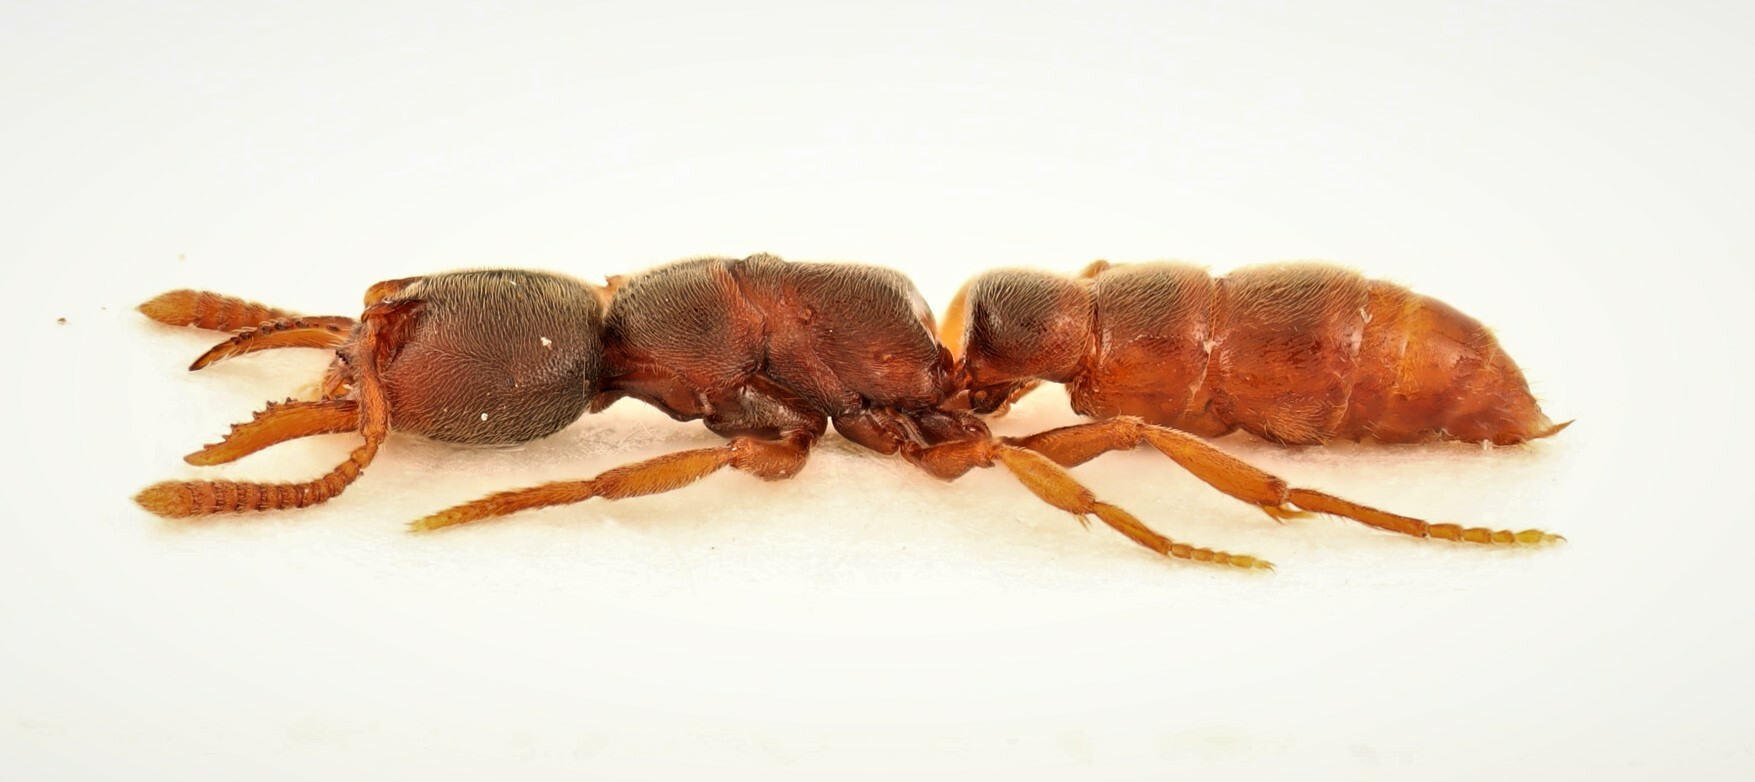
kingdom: Animalia
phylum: Arthropoda
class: Insecta
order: Hymenoptera
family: Formicidae
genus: Stigmatomma
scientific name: Stigmatomma pallipes
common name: Vampire ant
